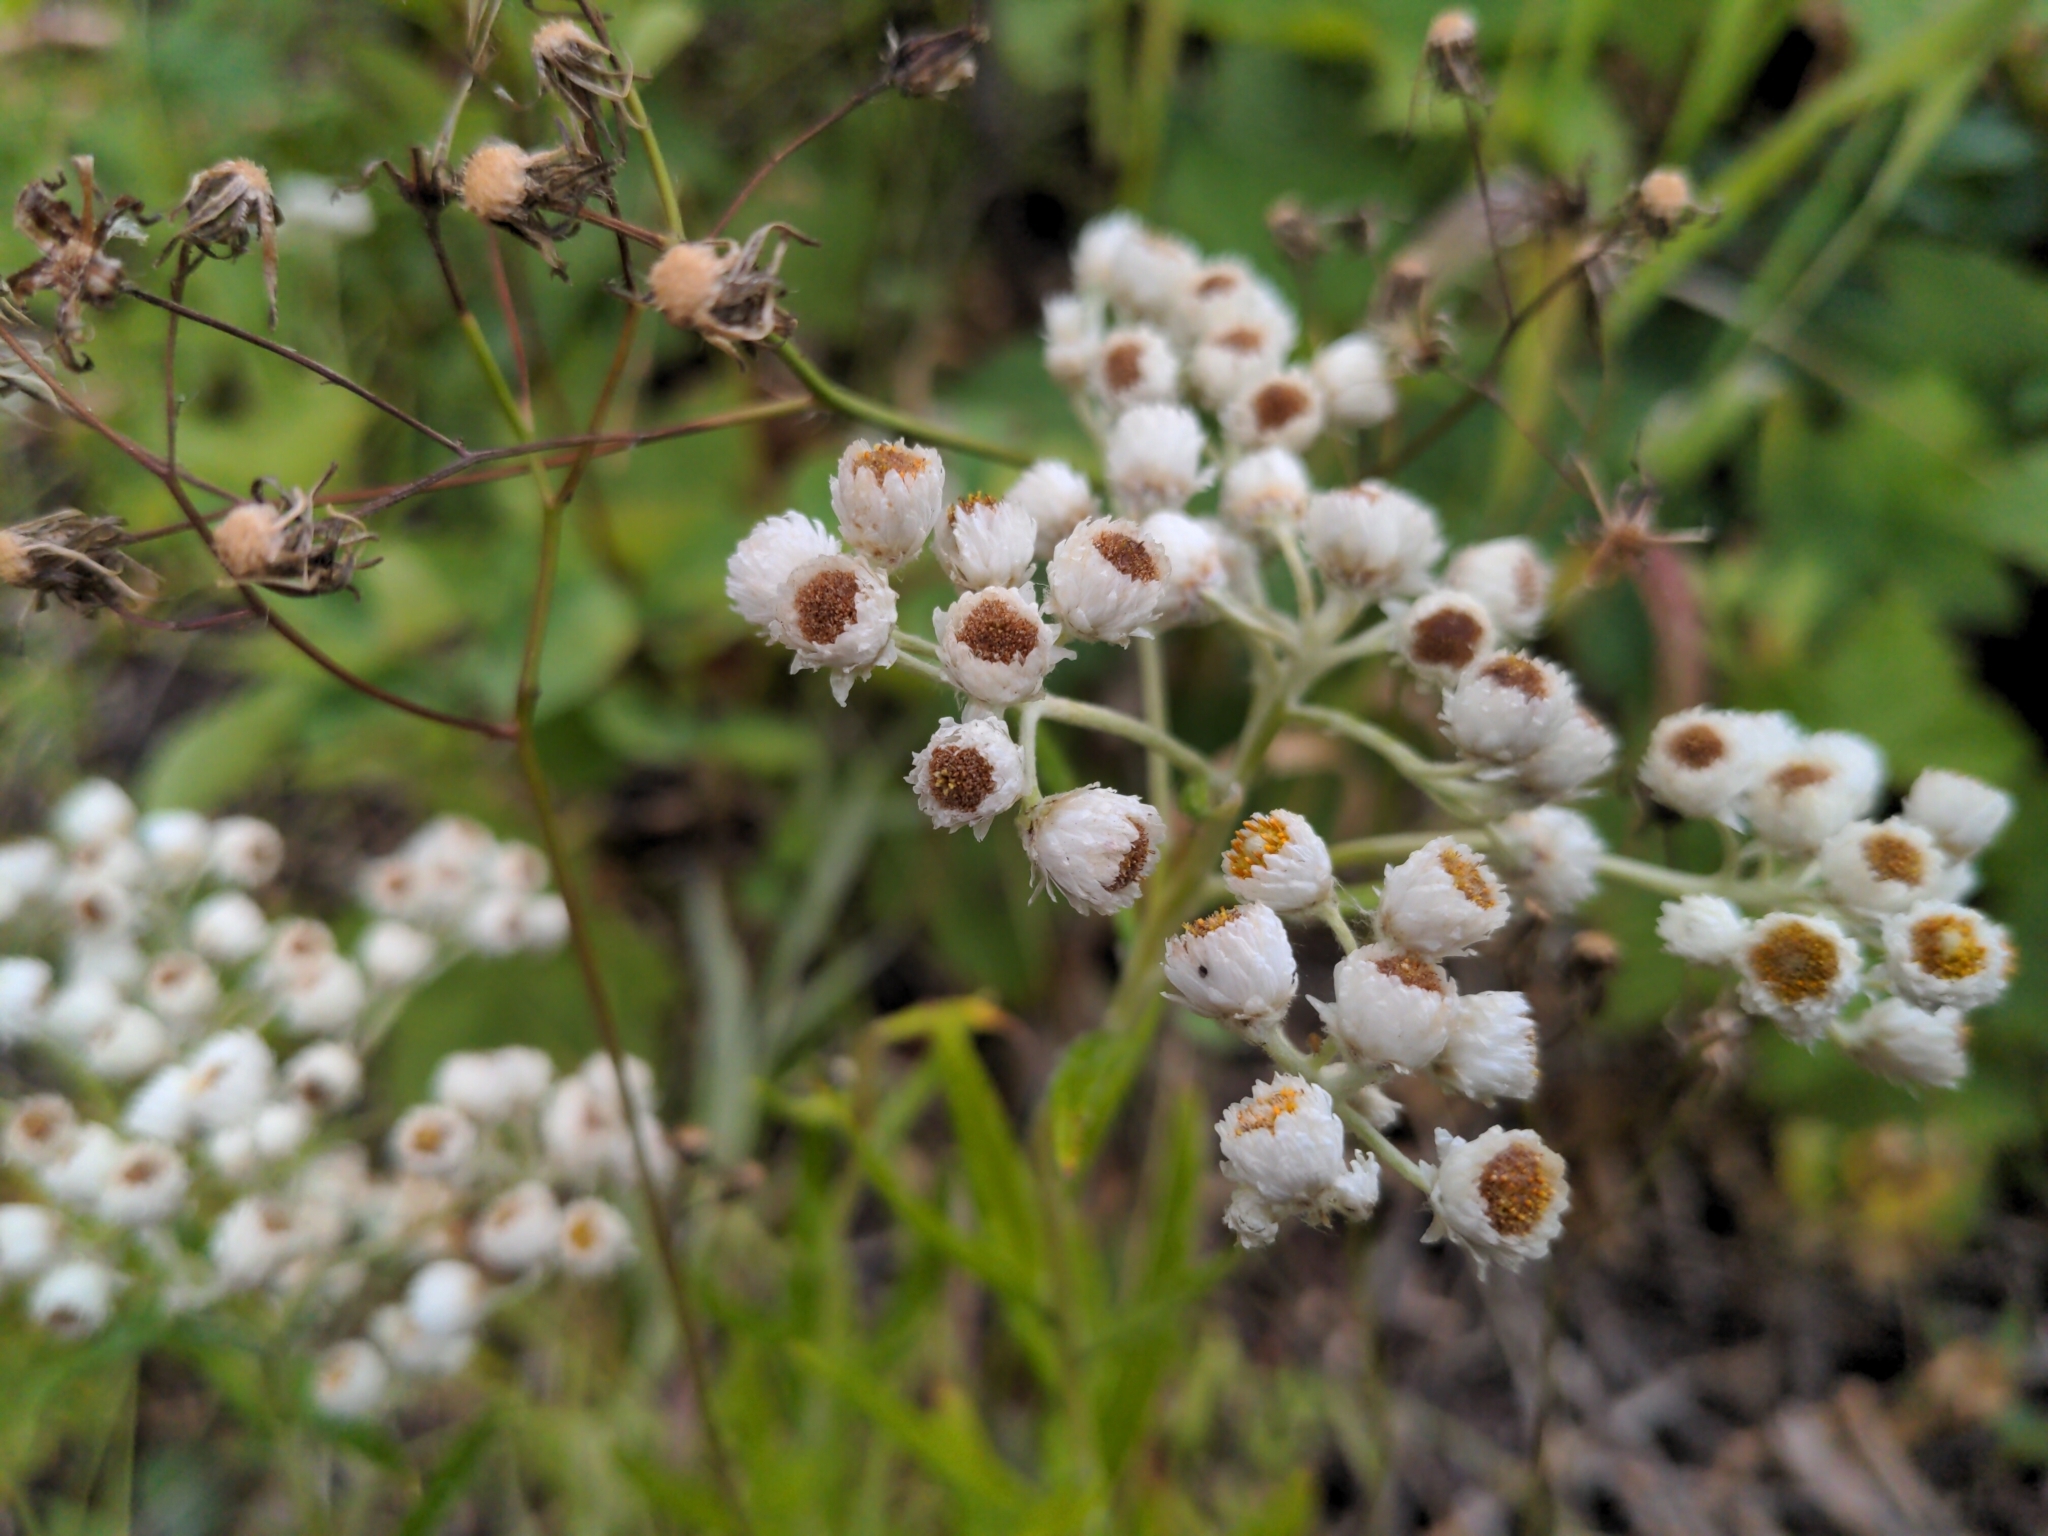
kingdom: Plantae
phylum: Tracheophyta
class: Magnoliopsida
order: Asterales
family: Asteraceae
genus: Anaphalis
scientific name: Anaphalis margaritacea
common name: Pearly everlasting
